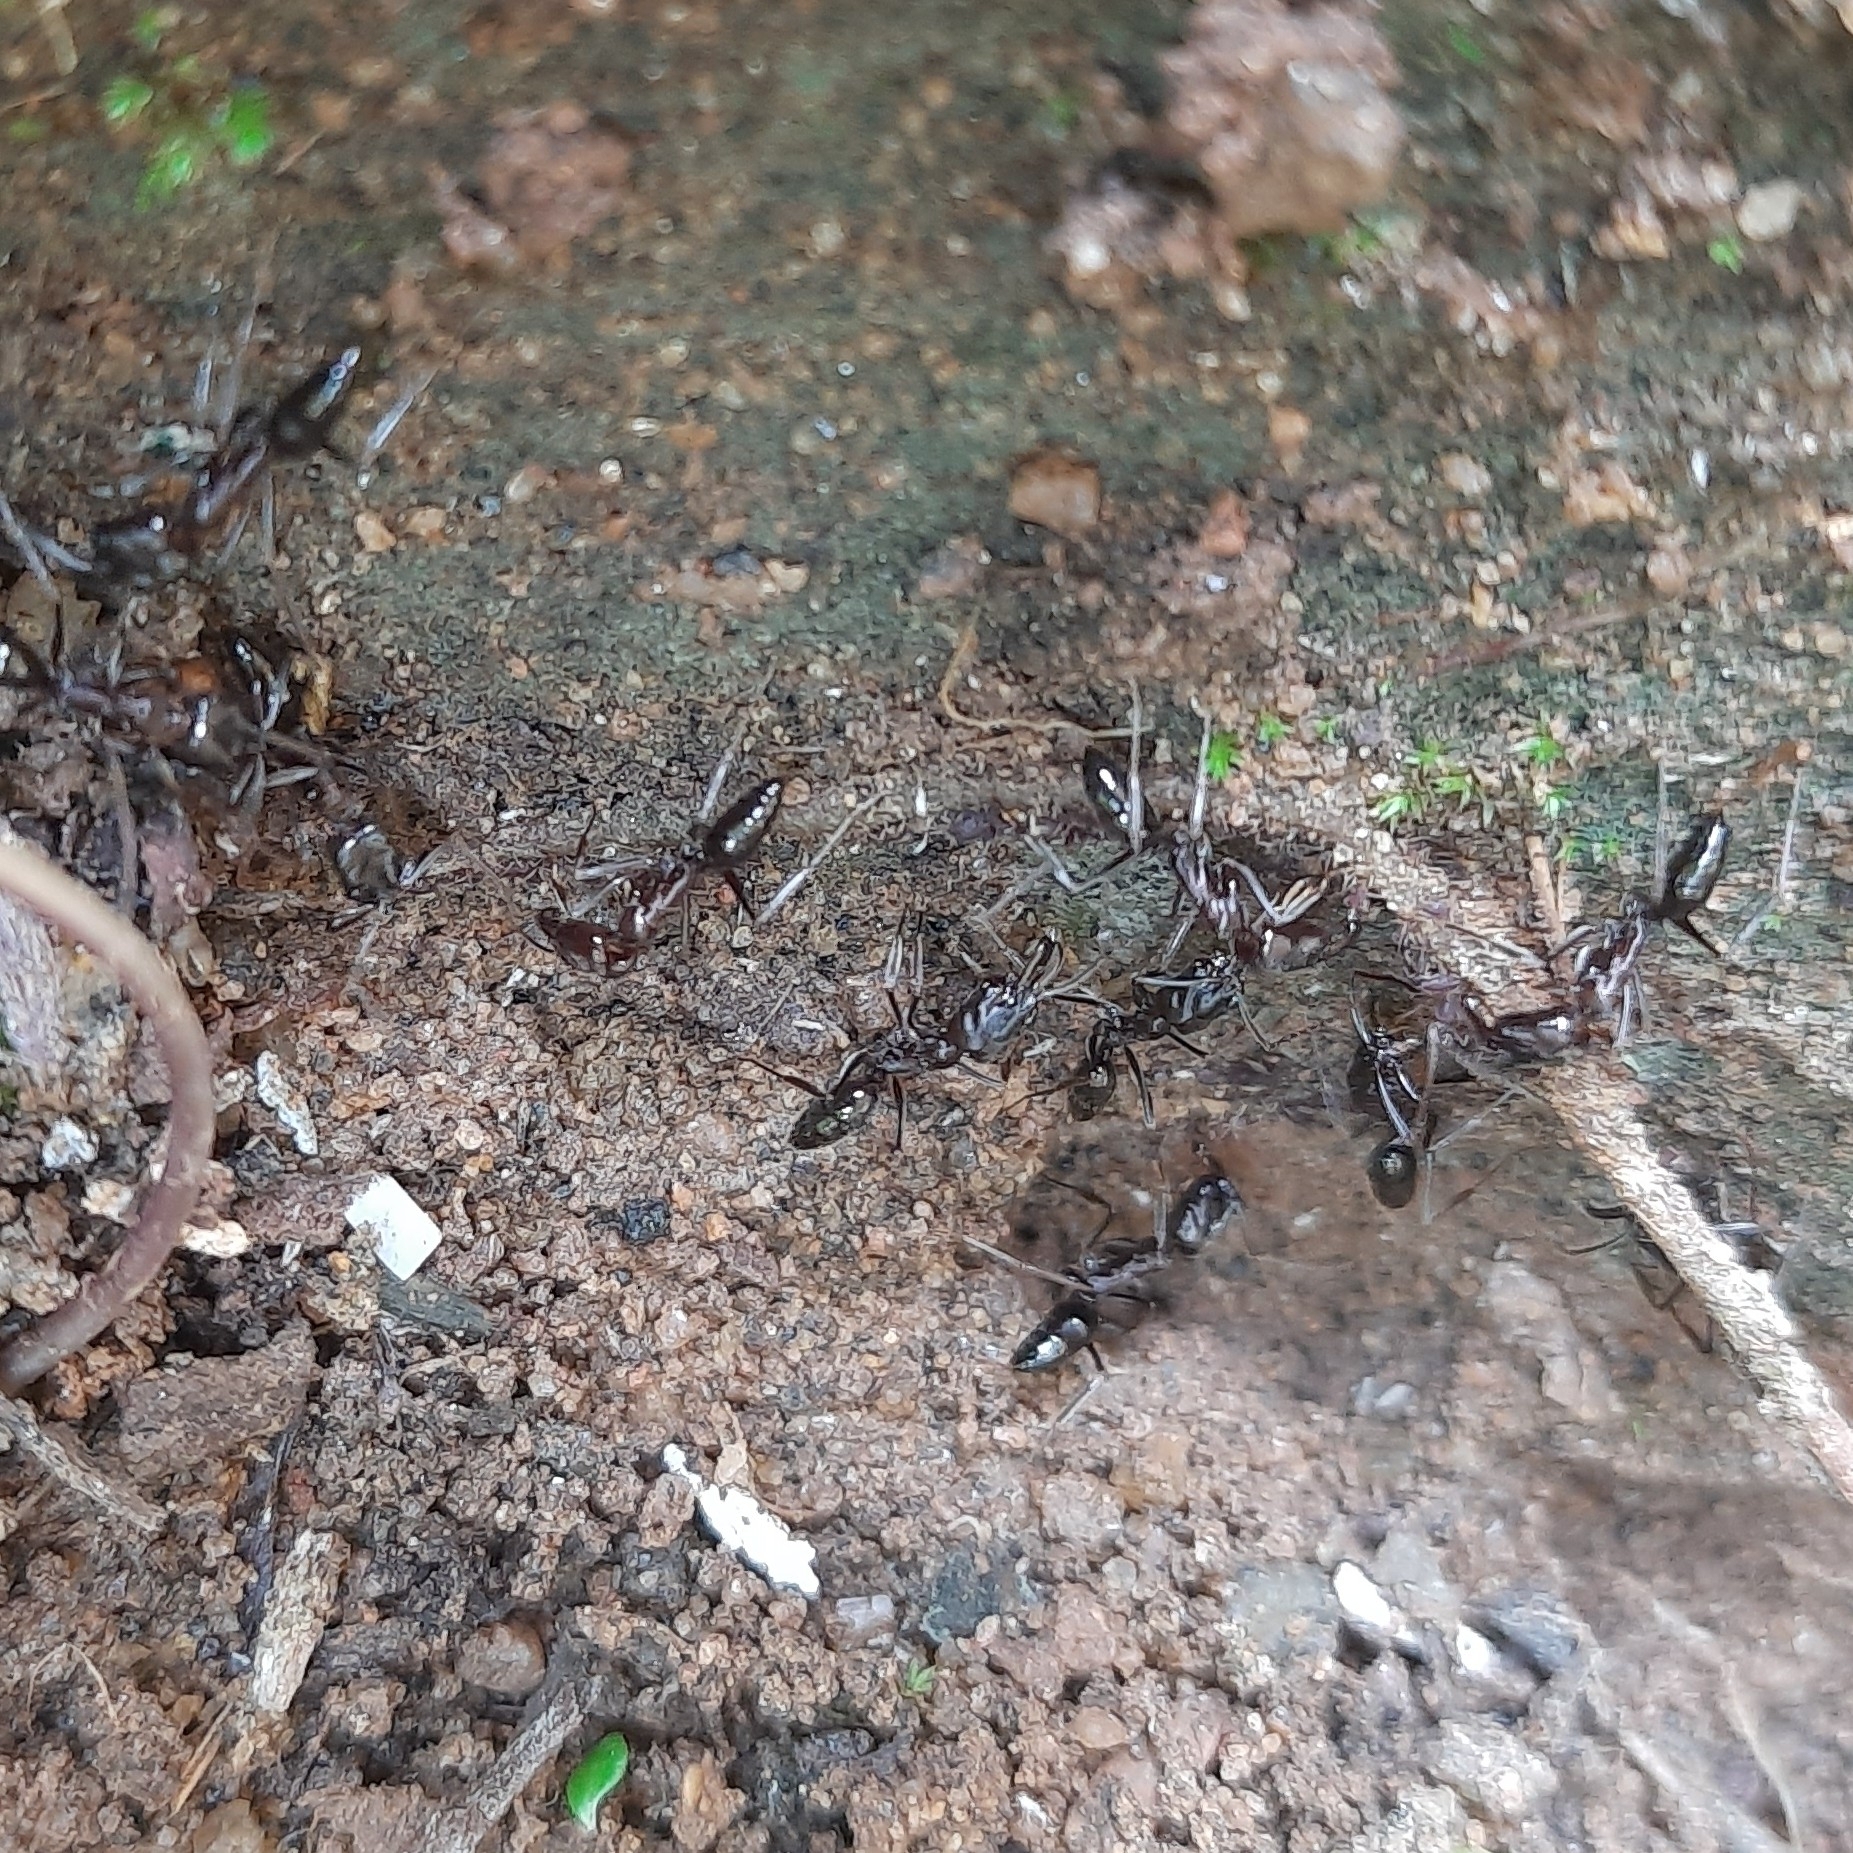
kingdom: Animalia
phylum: Arthropoda
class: Insecta
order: Hymenoptera
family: Formicidae
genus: Odontomachus
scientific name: Odontomachus simillimus
